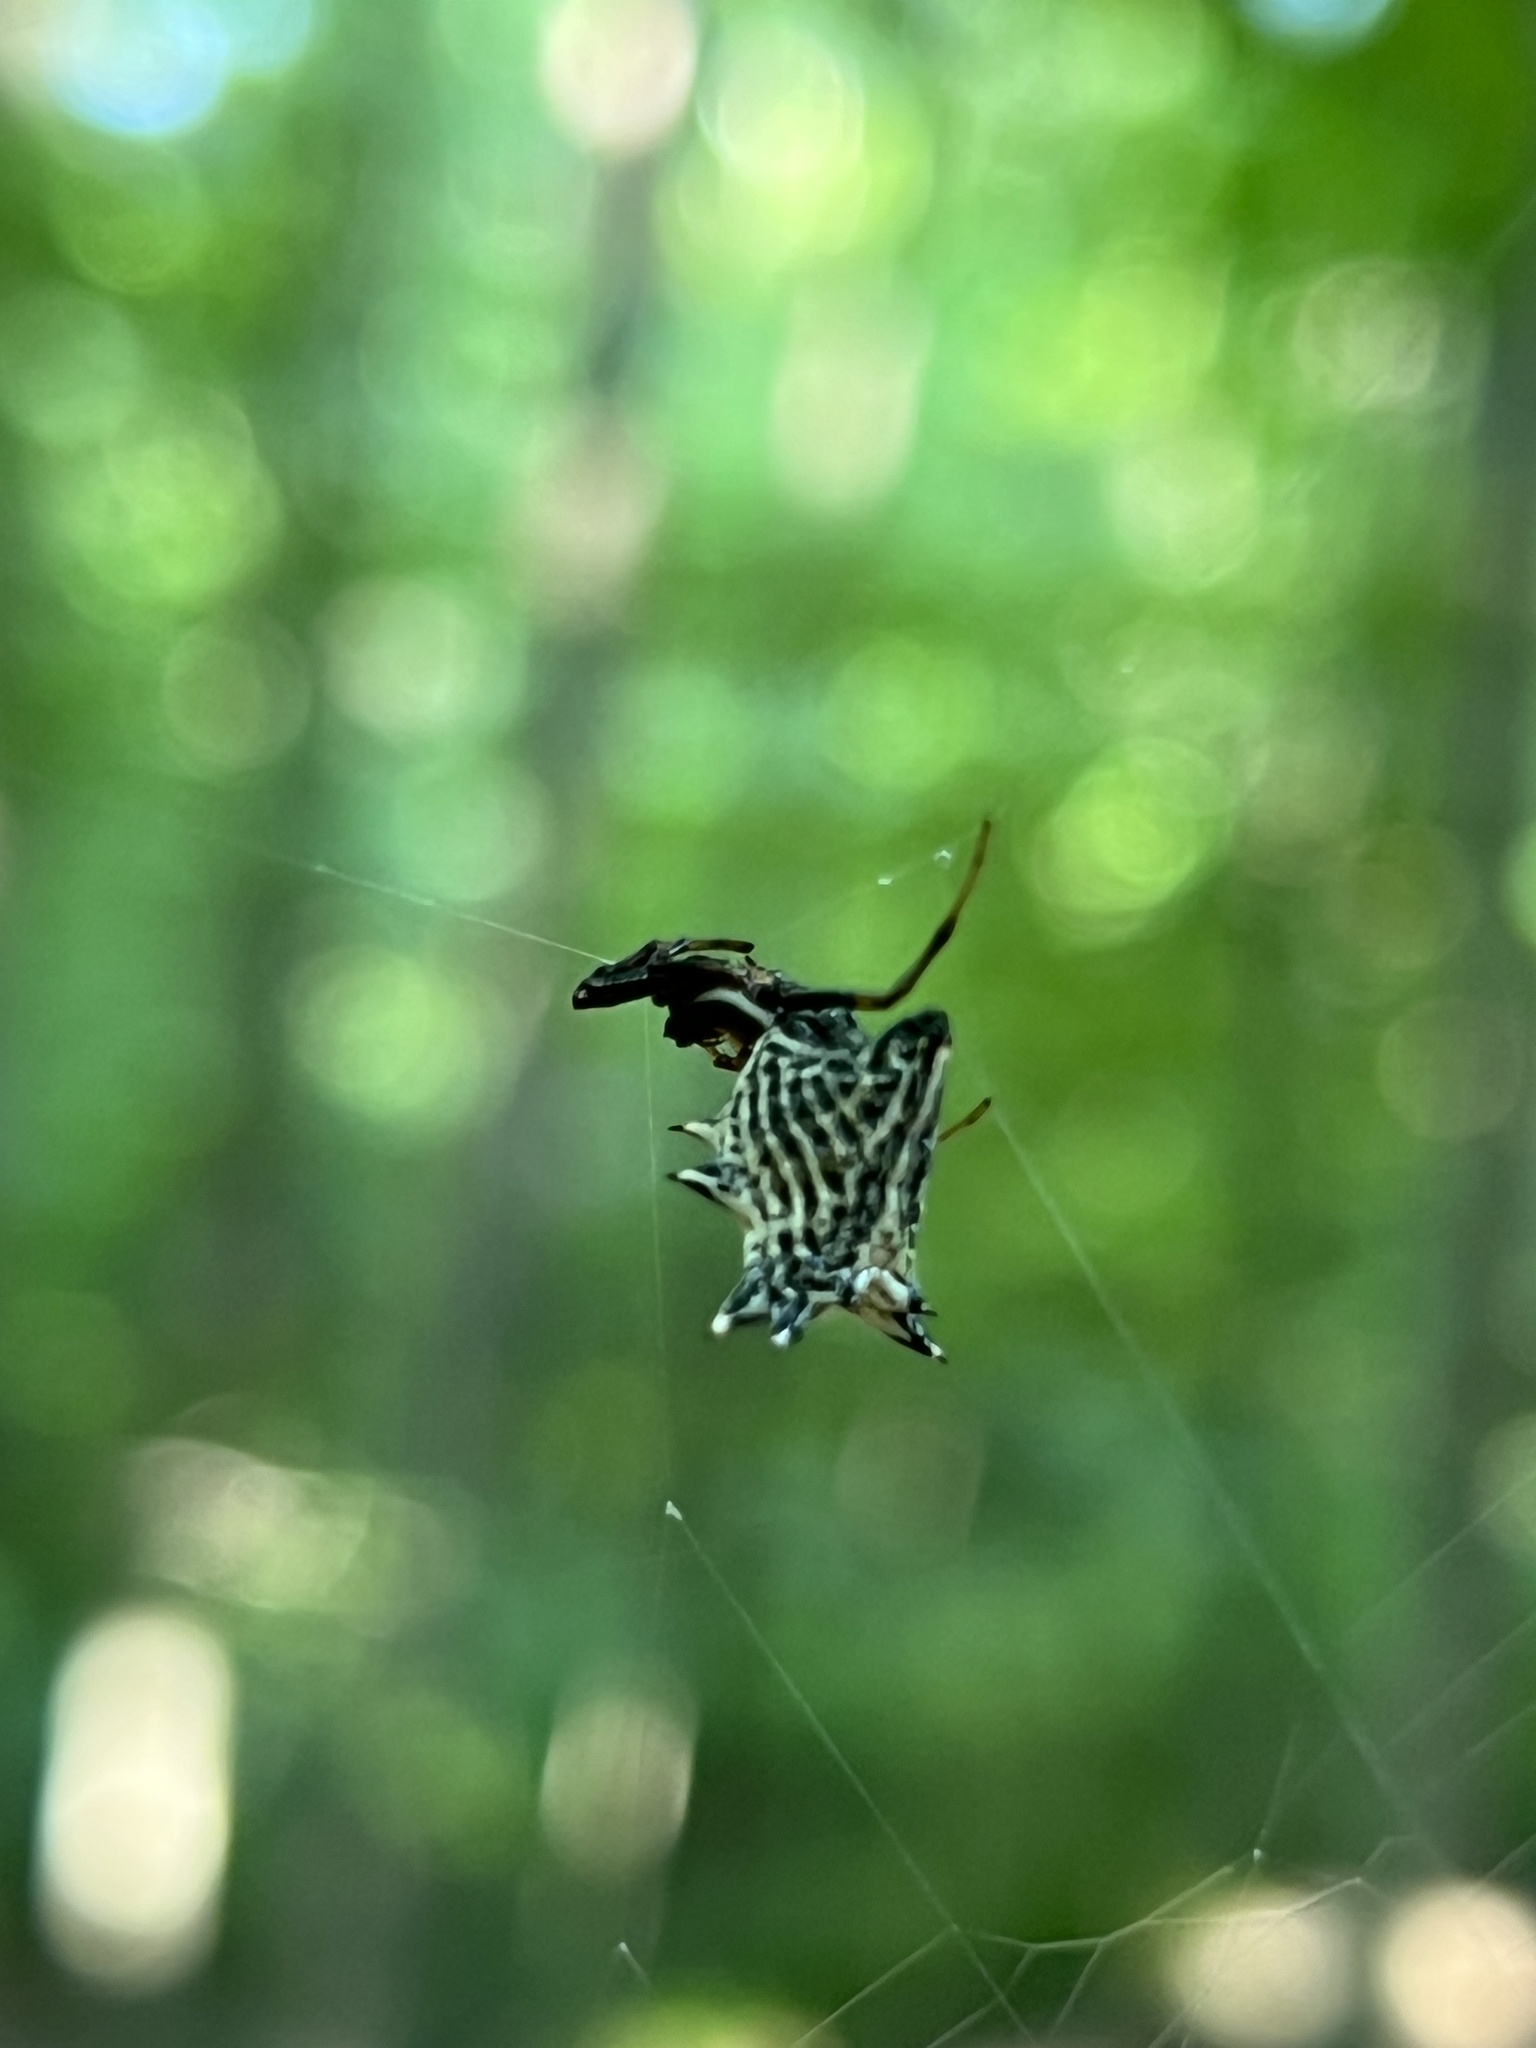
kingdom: Animalia
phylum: Arthropoda
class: Arachnida
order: Araneae
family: Araneidae
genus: Micrathena
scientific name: Micrathena gracilis
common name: Orb weavers
